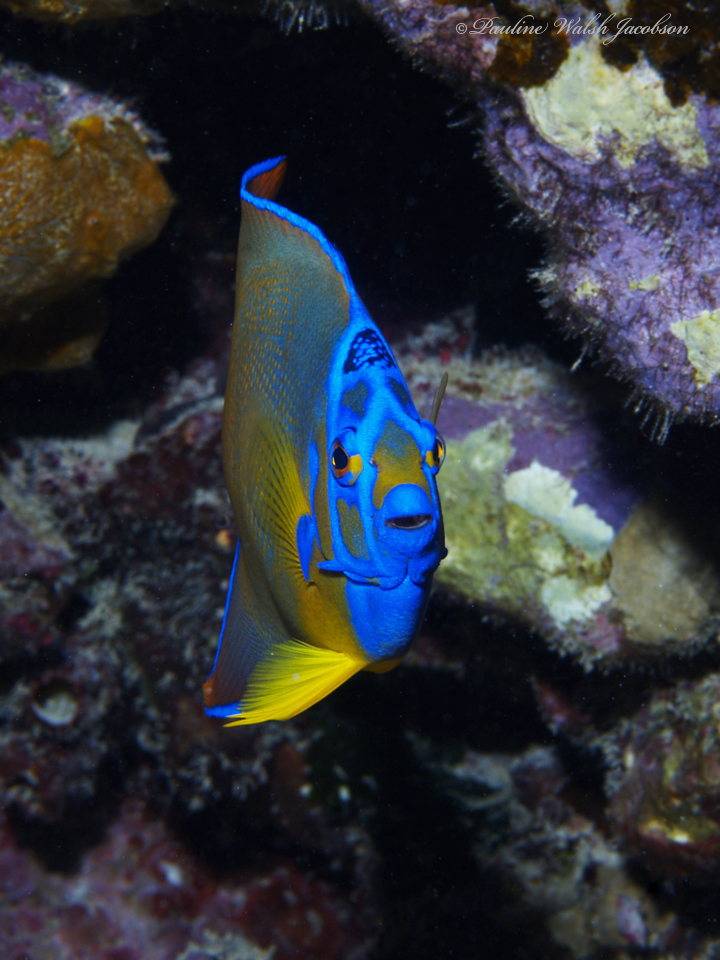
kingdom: Animalia
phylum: Chordata
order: Perciformes
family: Pomacanthidae
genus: Holacanthus
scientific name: Holacanthus ciliaris
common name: Queen angelfish
